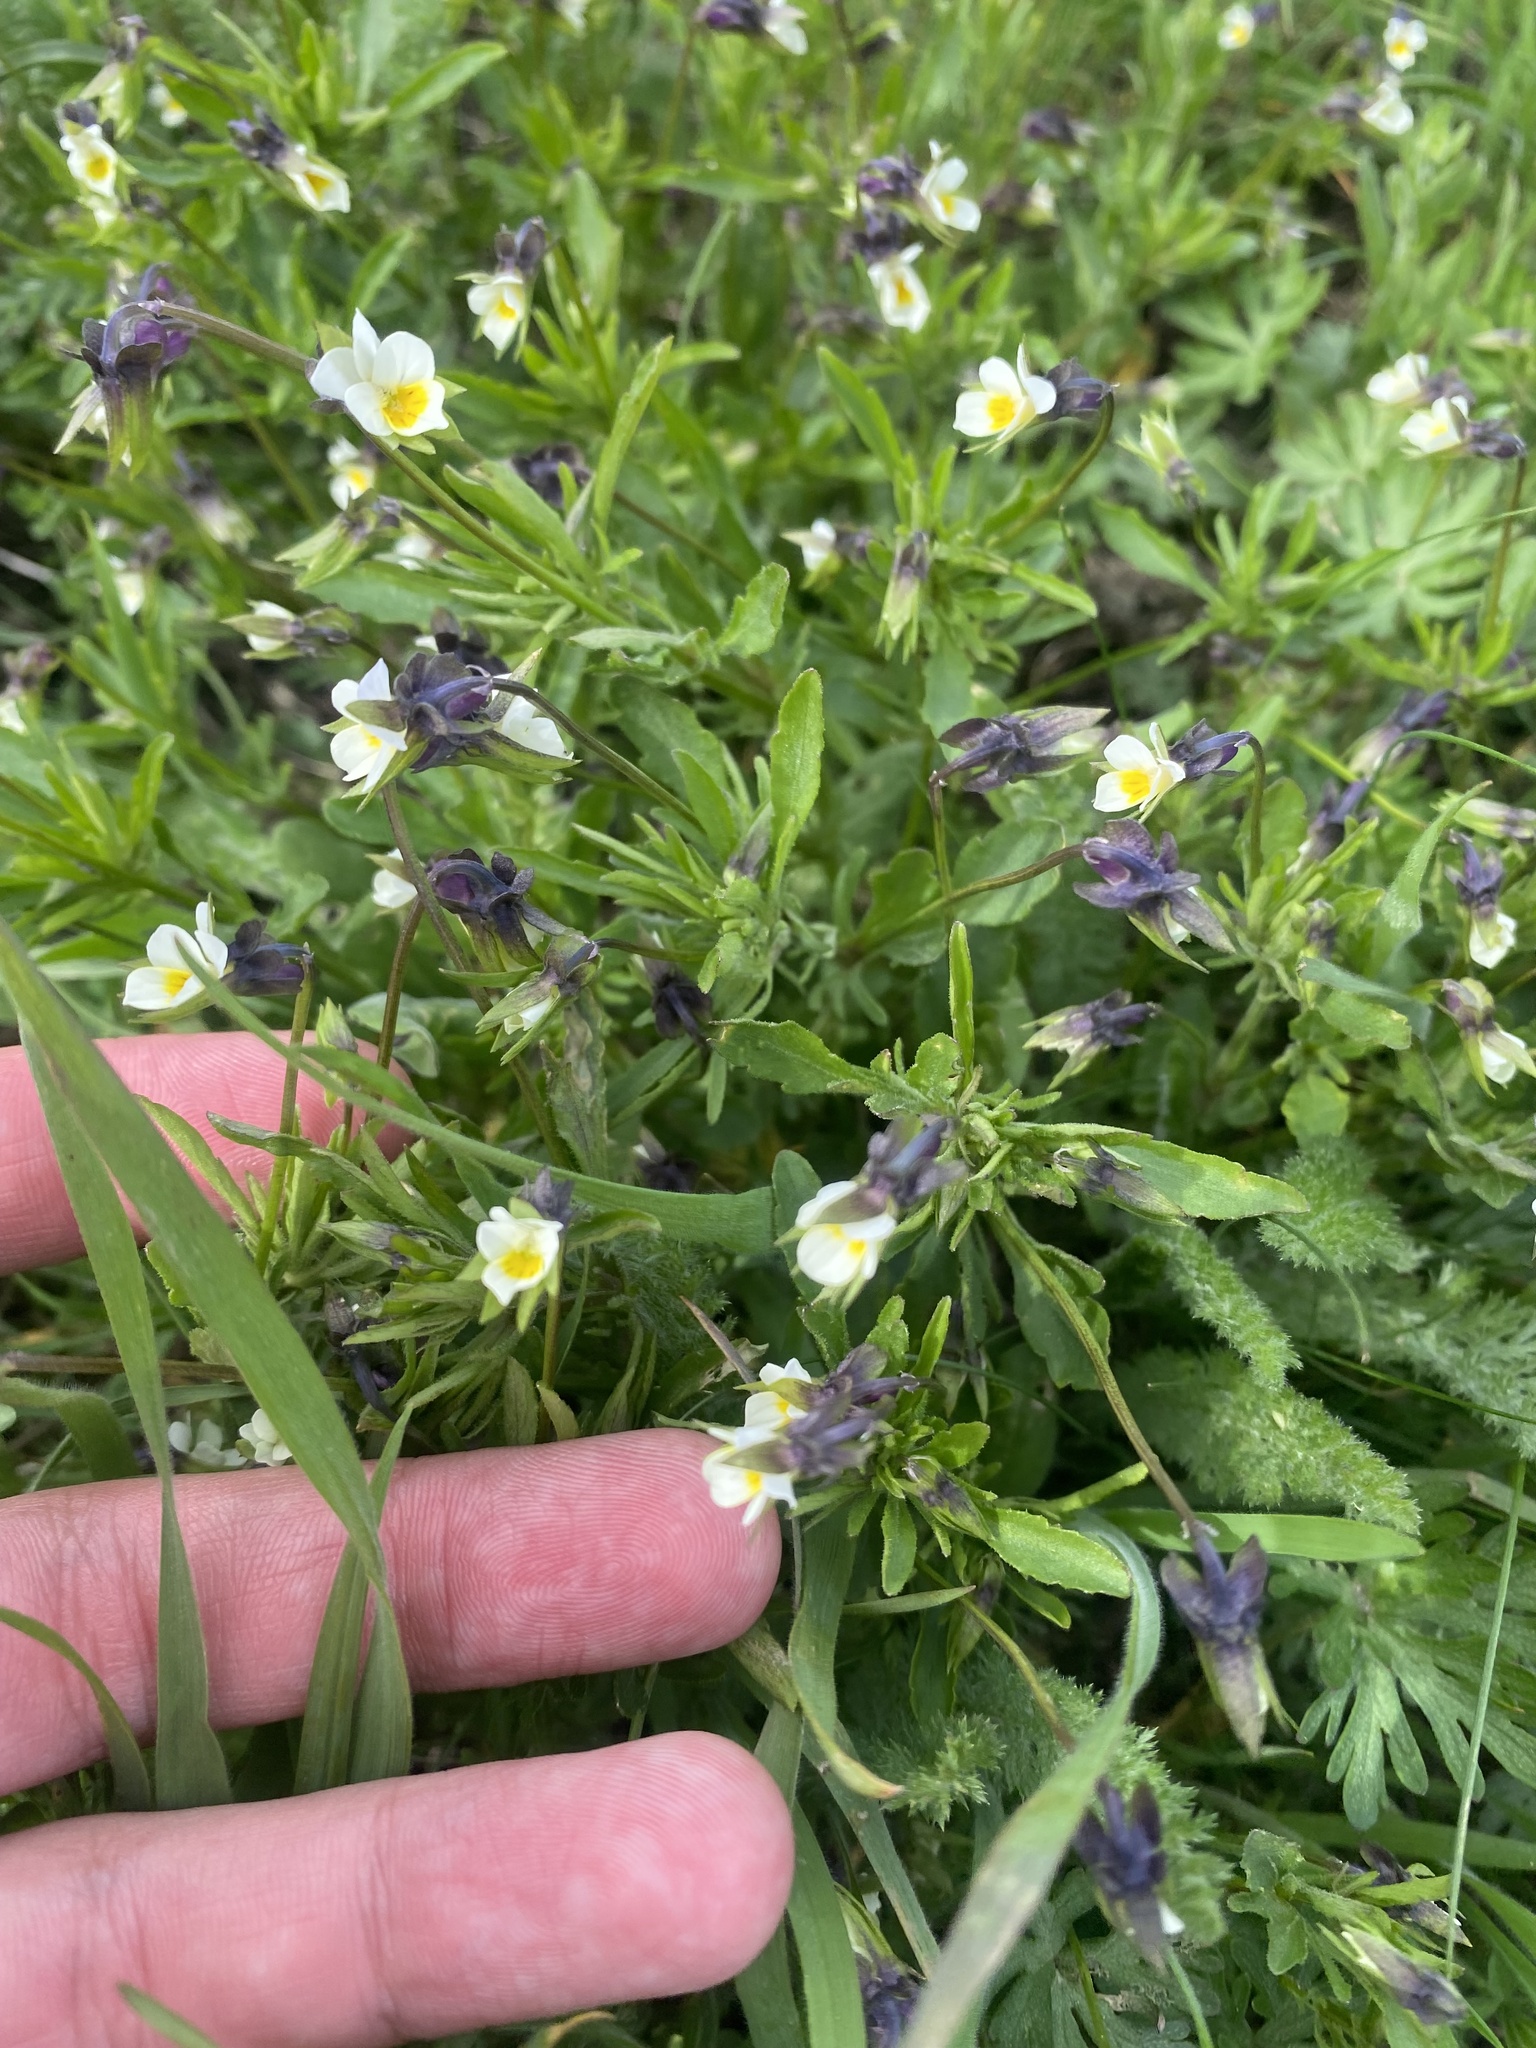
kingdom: Plantae
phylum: Tracheophyta
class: Magnoliopsida
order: Malpighiales
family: Violaceae
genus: Viola
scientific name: Viola kitaibeliana
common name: Dwarf pansy
